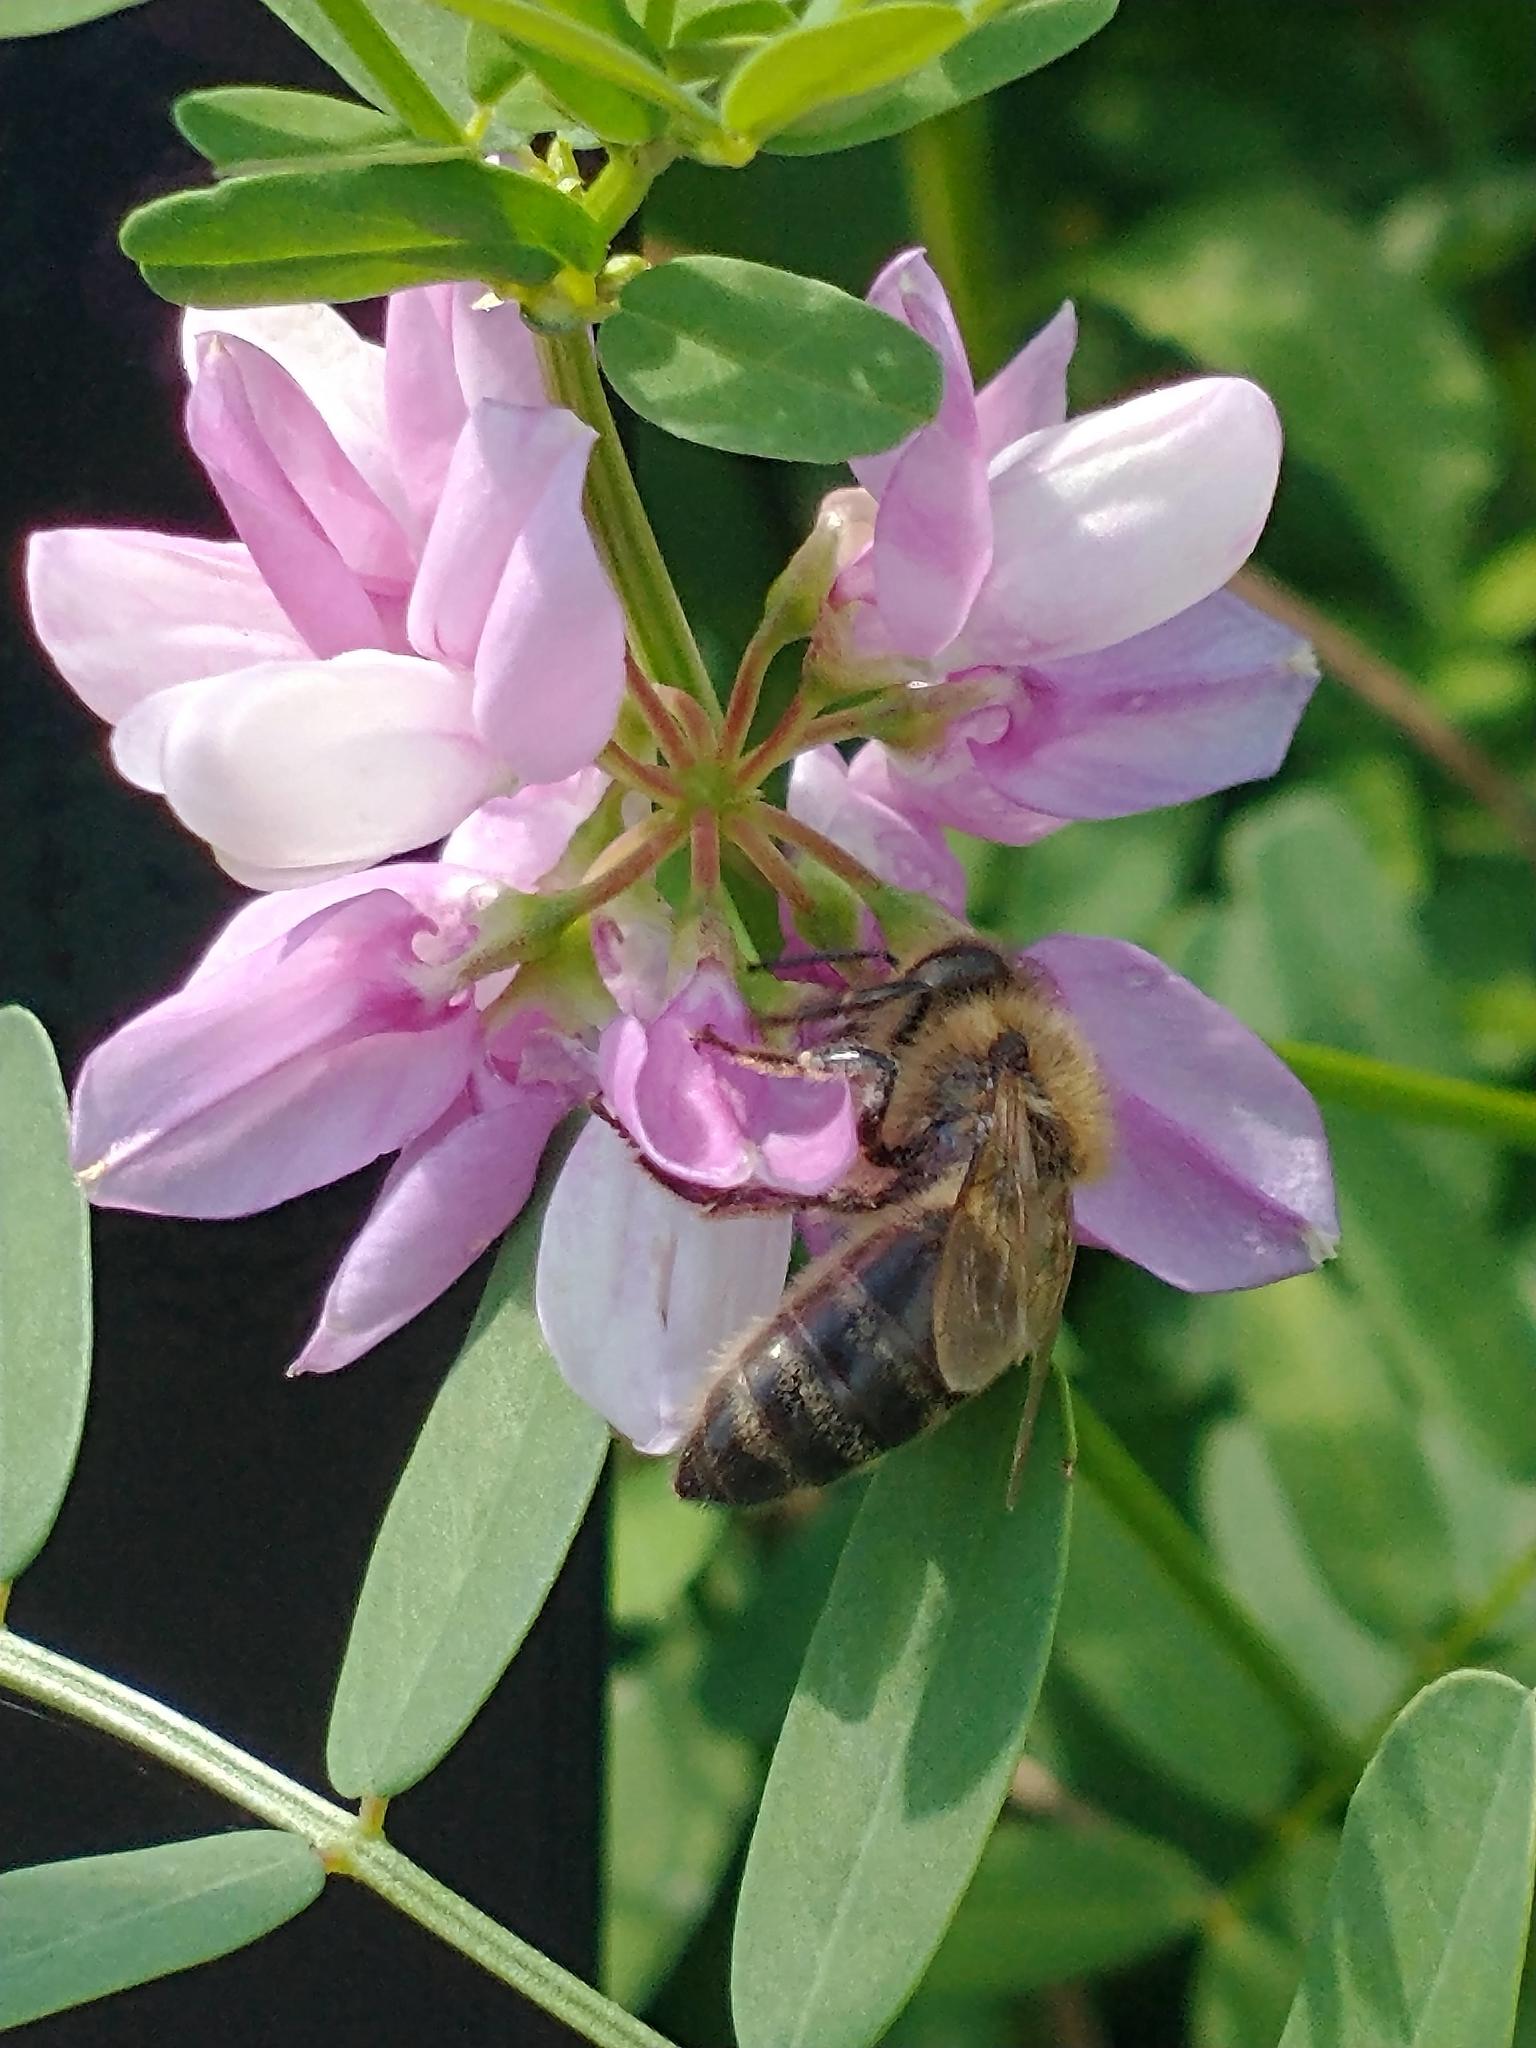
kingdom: Animalia
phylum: Arthropoda
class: Insecta
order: Hymenoptera
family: Apidae
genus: Apis
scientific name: Apis mellifera
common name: Honey bee
